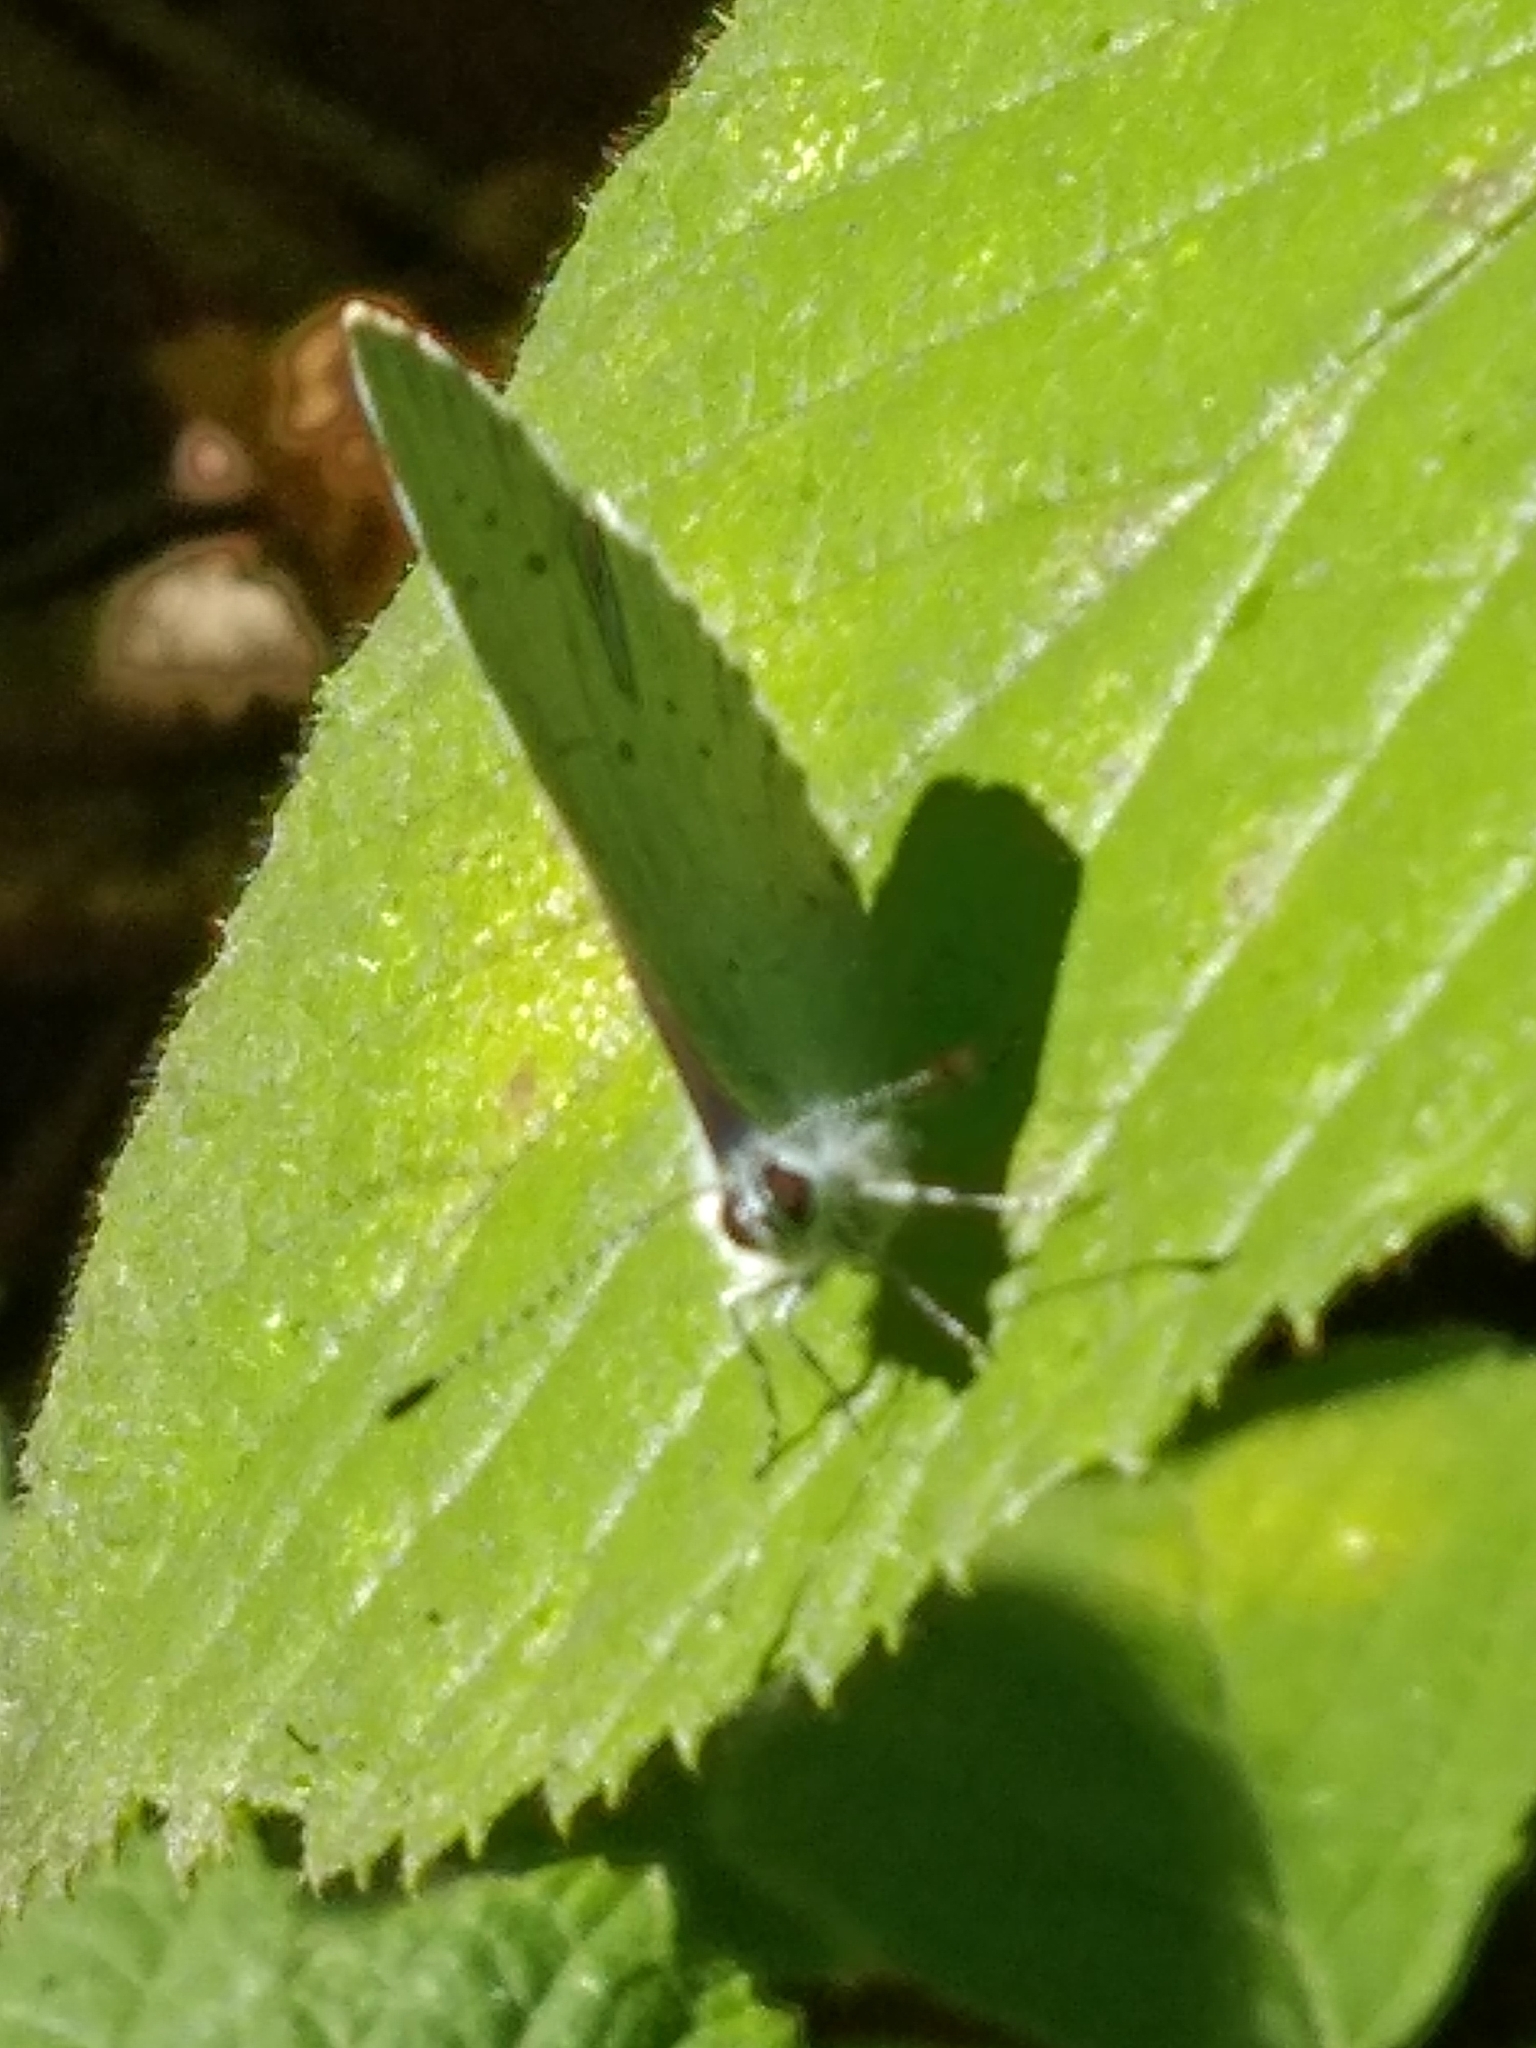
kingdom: Animalia
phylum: Arthropoda
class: Insecta
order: Lepidoptera
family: Lycaenidae
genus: Celastrina
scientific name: Celastrina argiolus
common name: Holly blue
